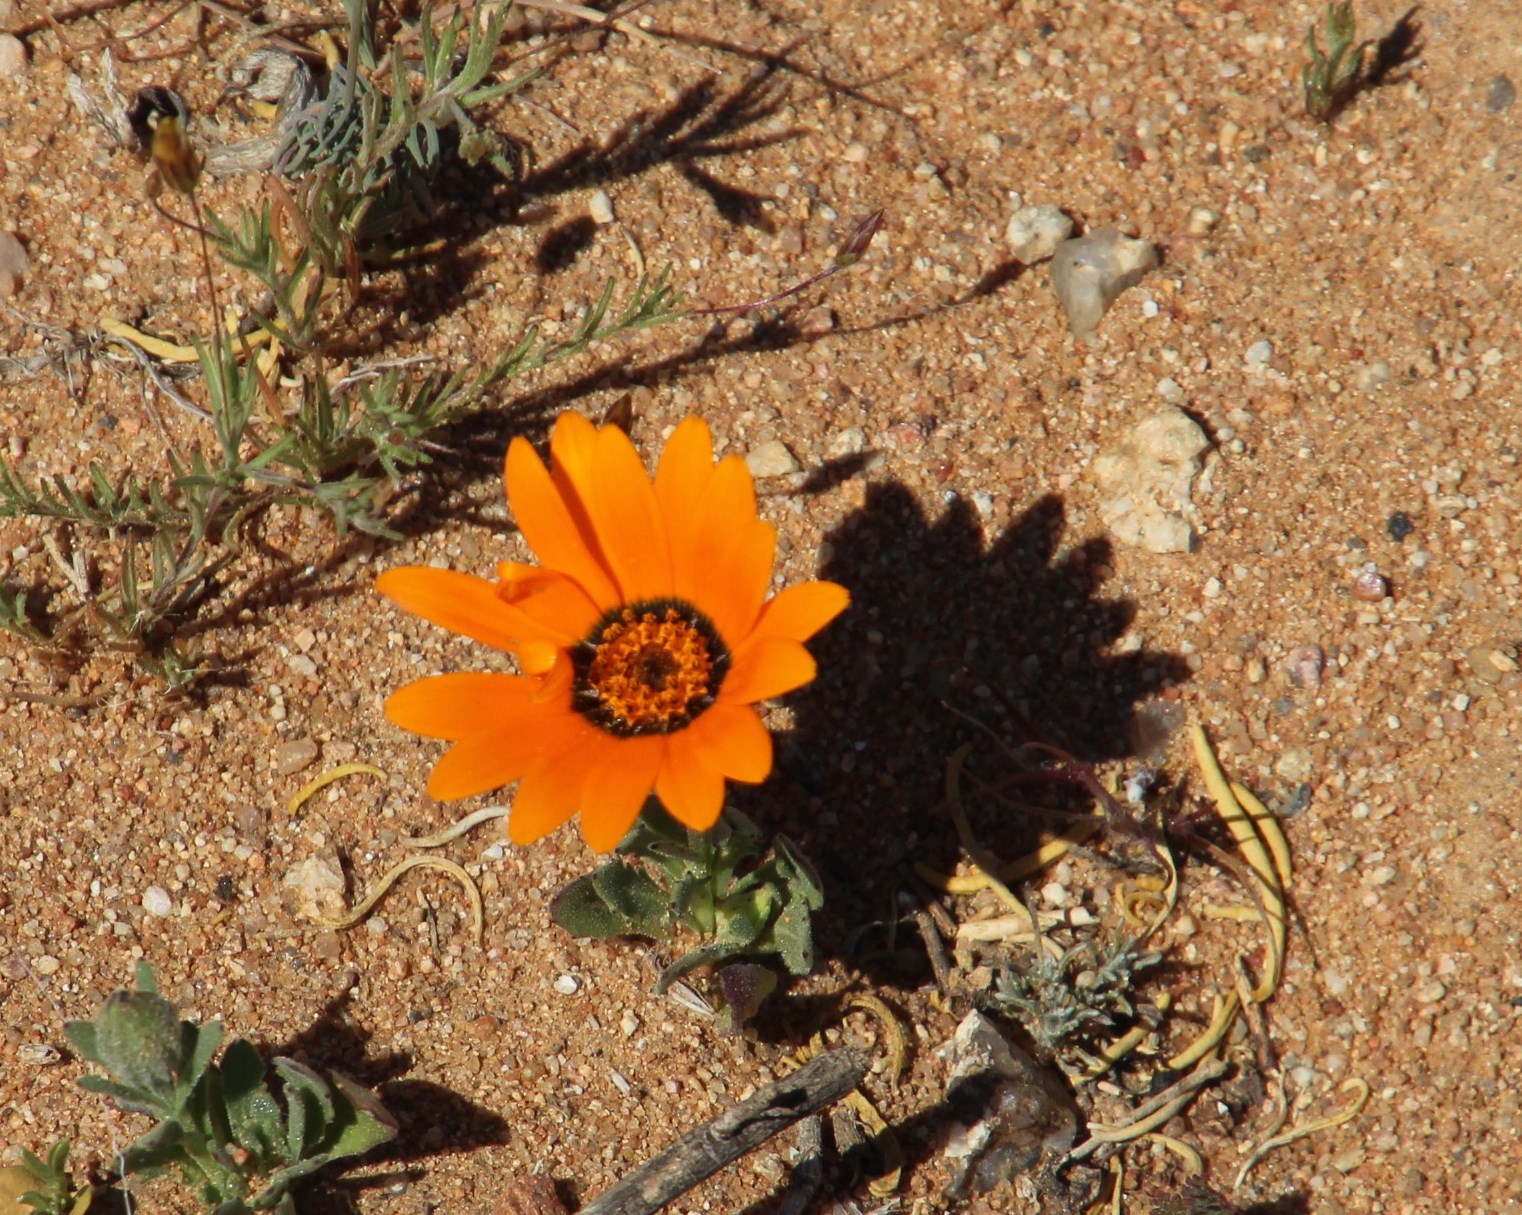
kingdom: Plantae
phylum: Tracheophyta
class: Magnoliopsida
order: Asterales
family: Asteraceae
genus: Dimorphotheca
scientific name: Dimorphotheca sinuata
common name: Glandular cape marigold
